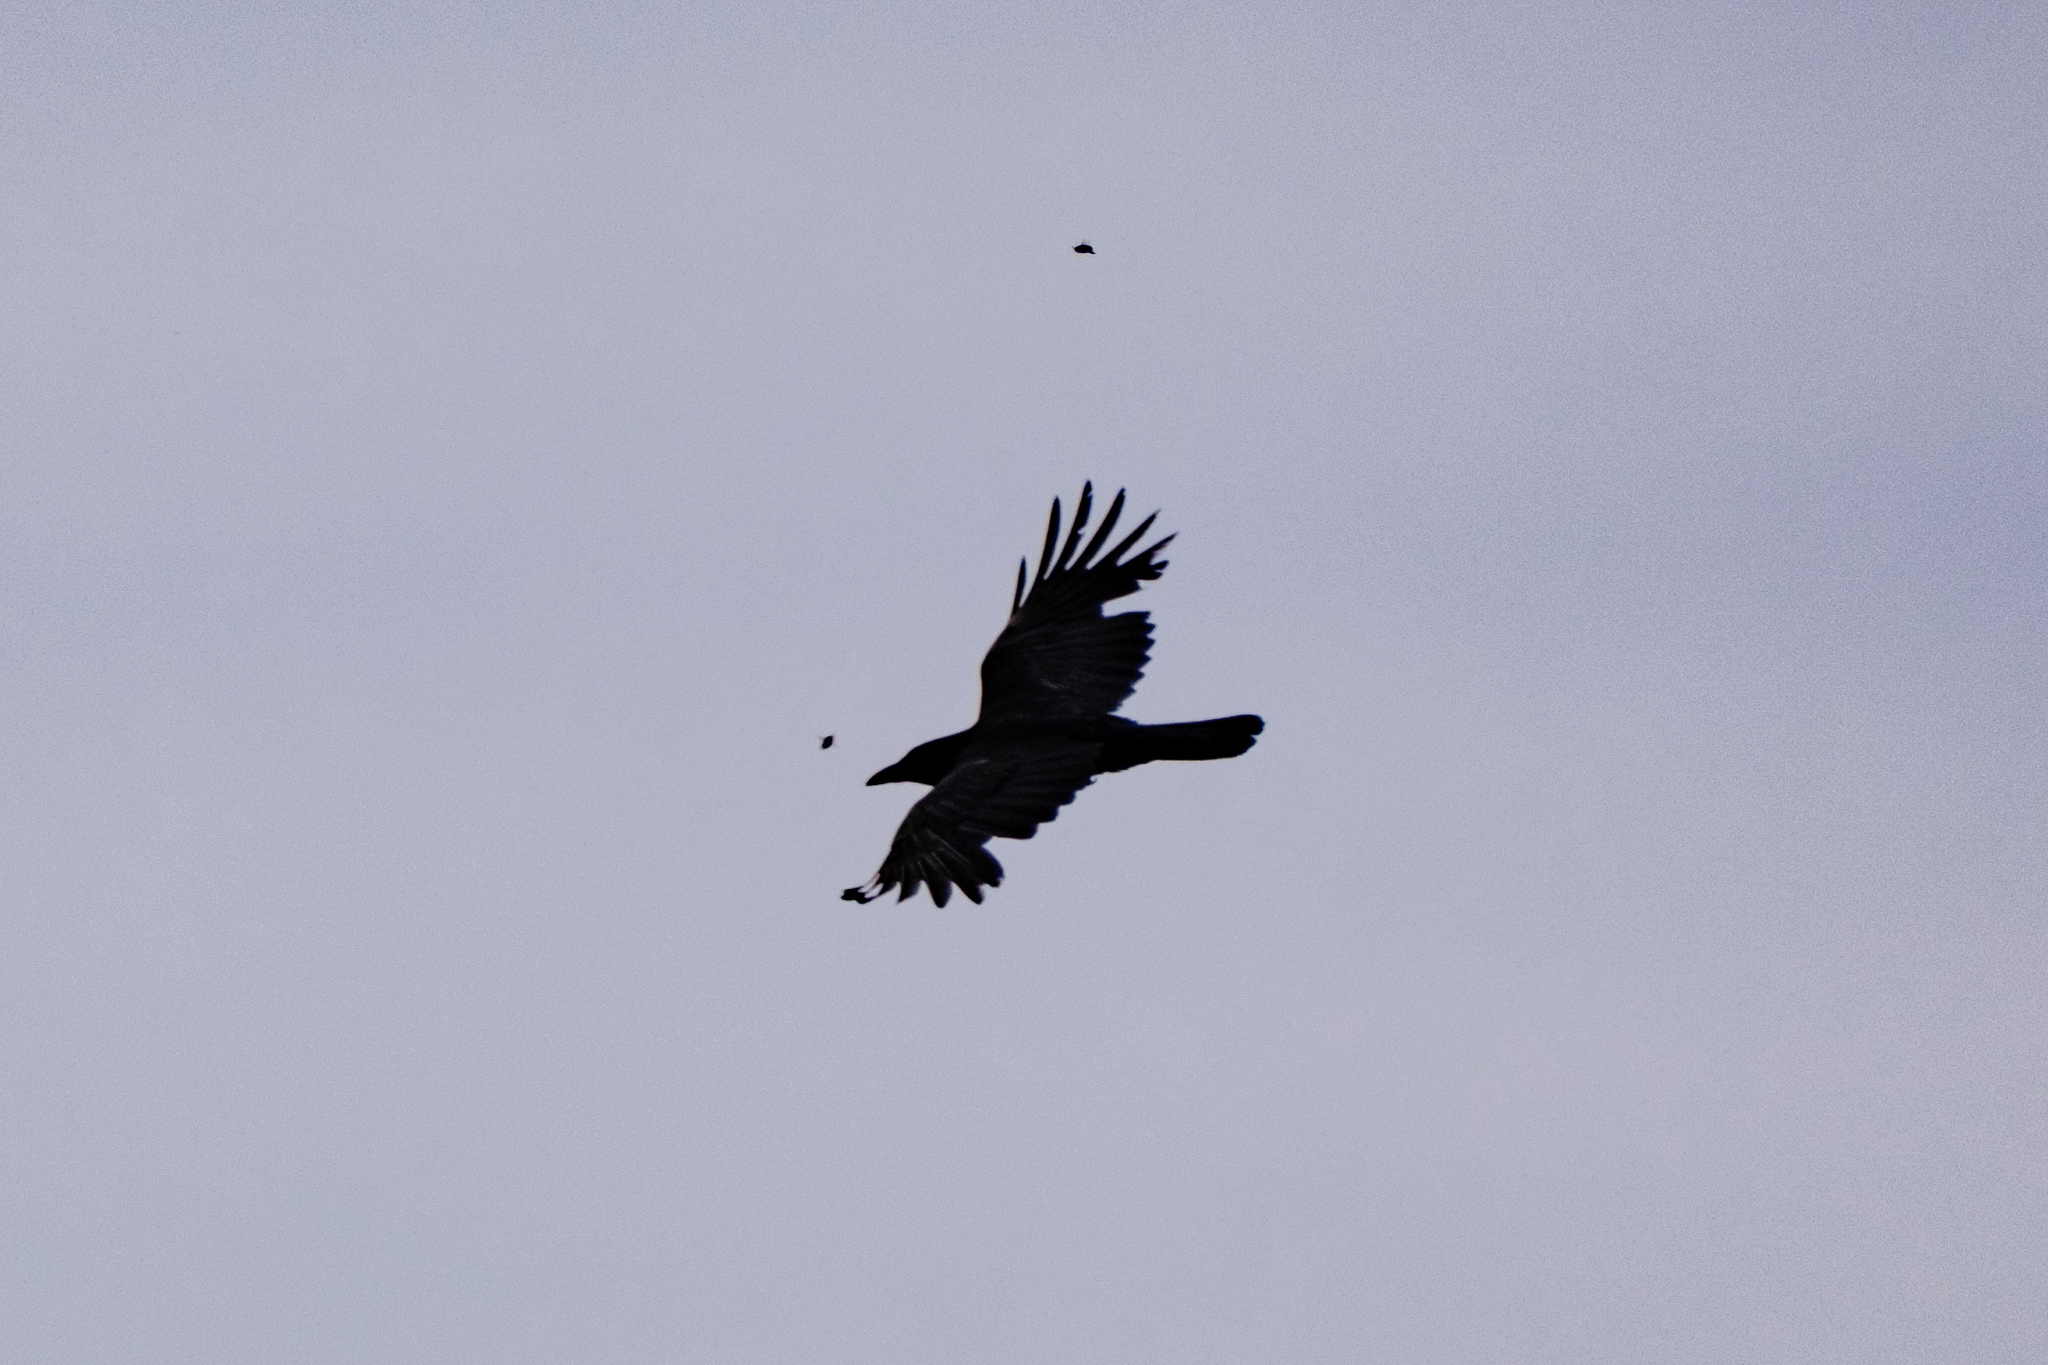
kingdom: Animalia
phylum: Chordata
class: Aves
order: Passeriformes
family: Corvidae
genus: Corvus
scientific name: Corvus corone
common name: Carrion crow
